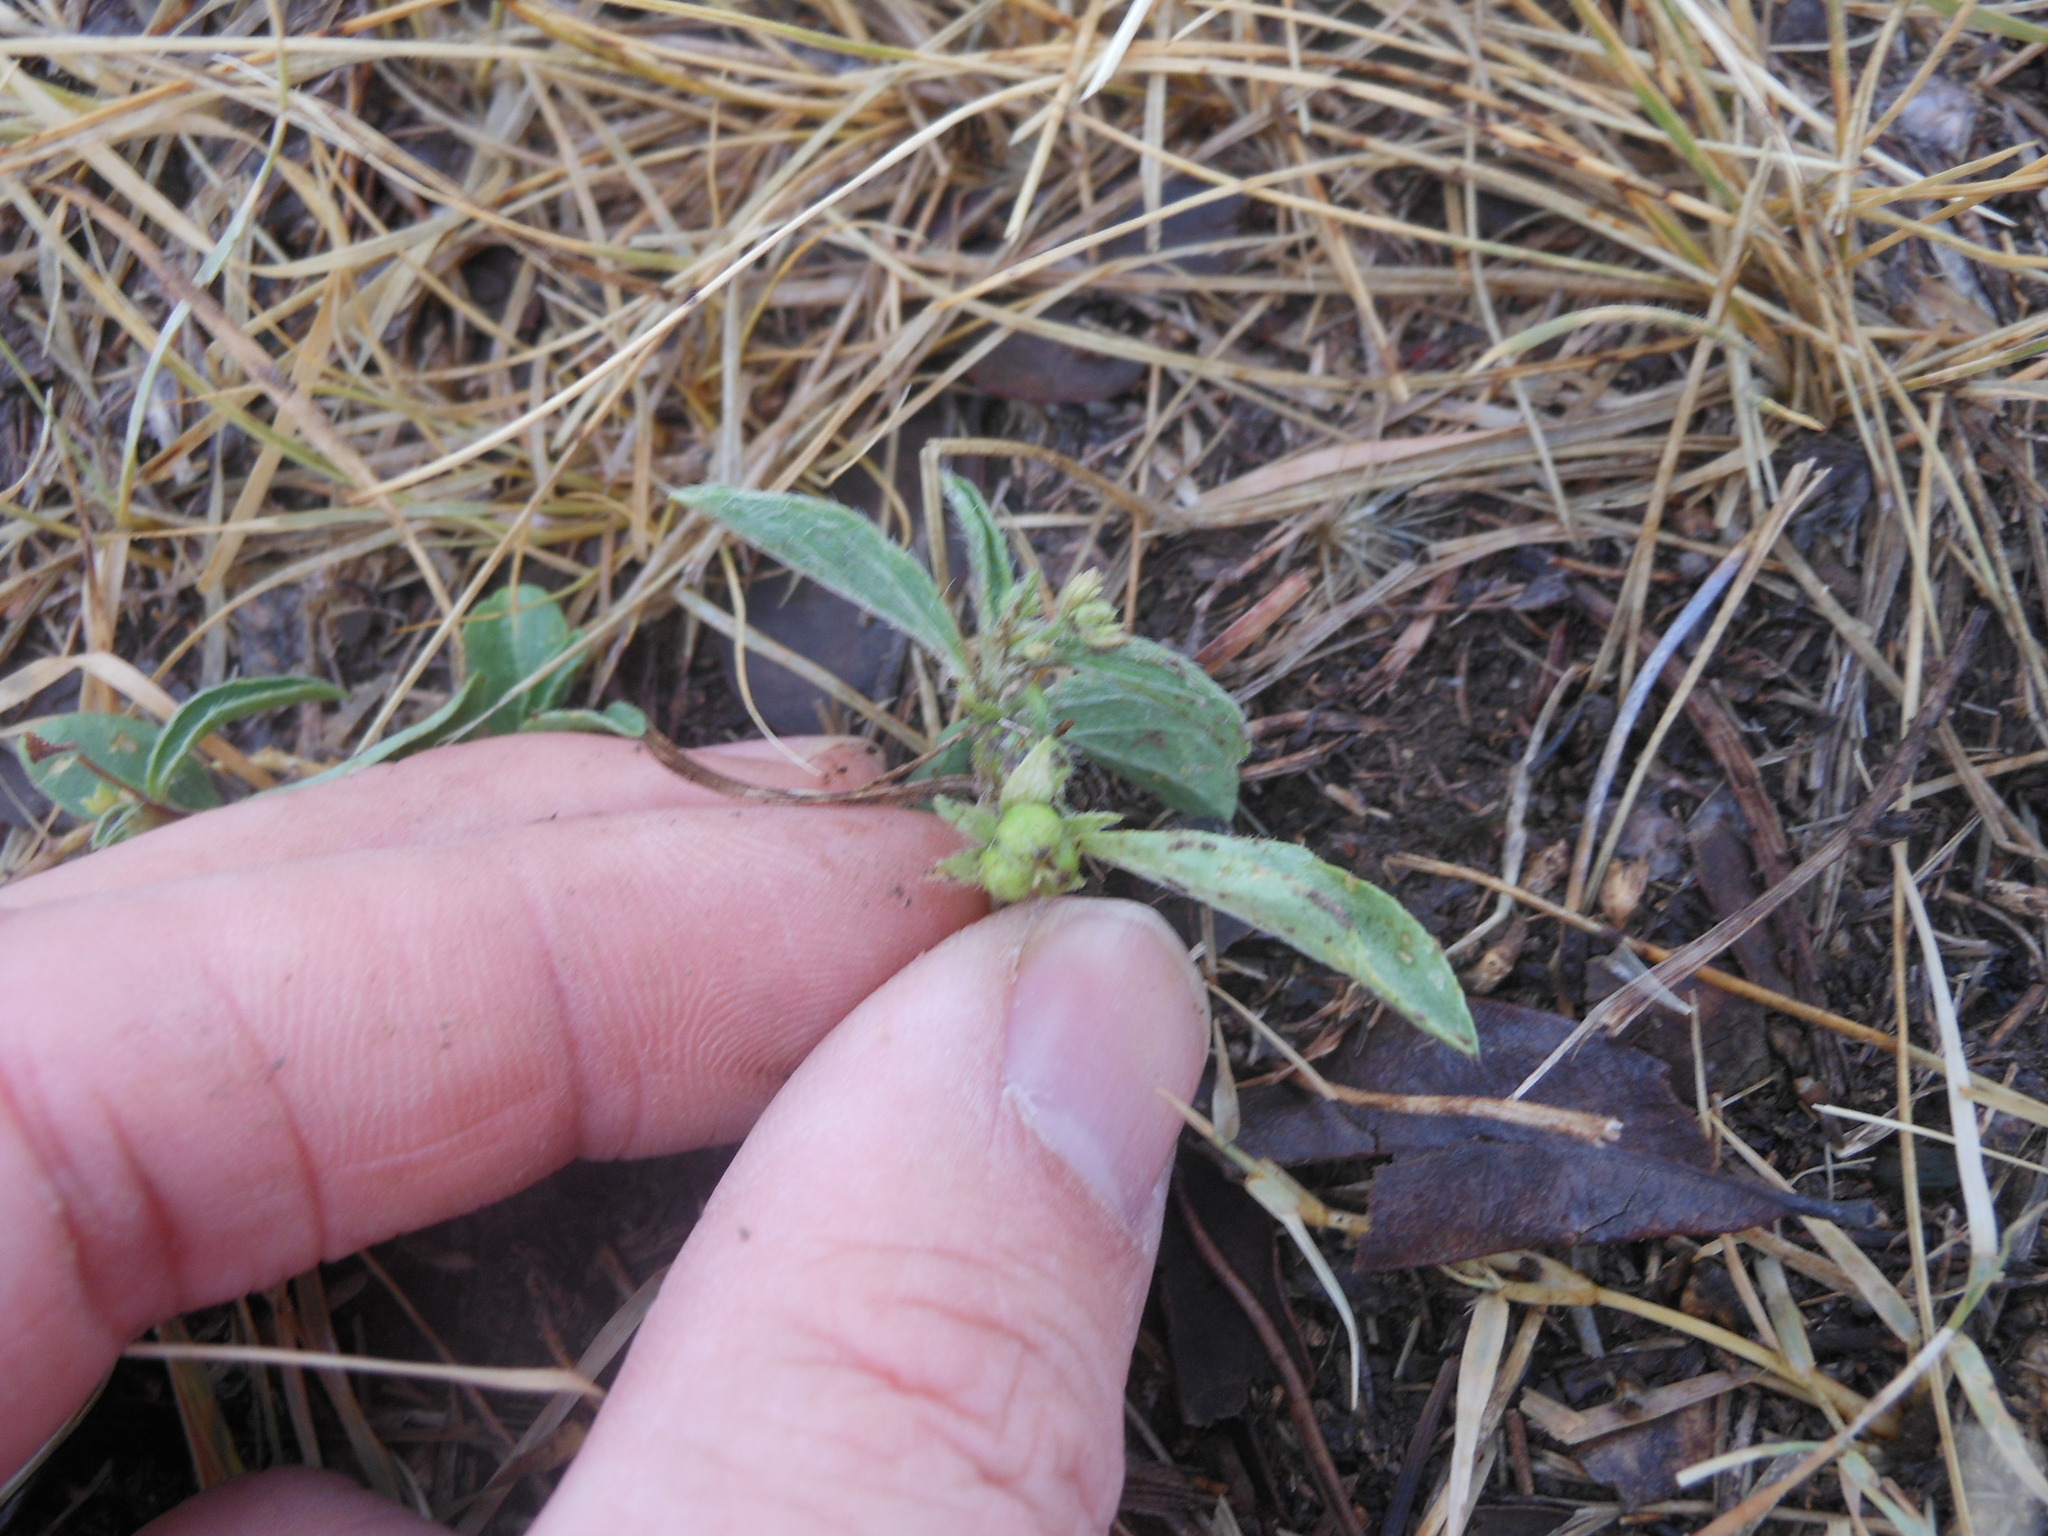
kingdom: Plantae
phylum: Tracheophyta
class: Magnoliopsida
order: Malpighiales
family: Euphorbiaceae
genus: Ditaxis
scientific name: Ditaxis humilis
